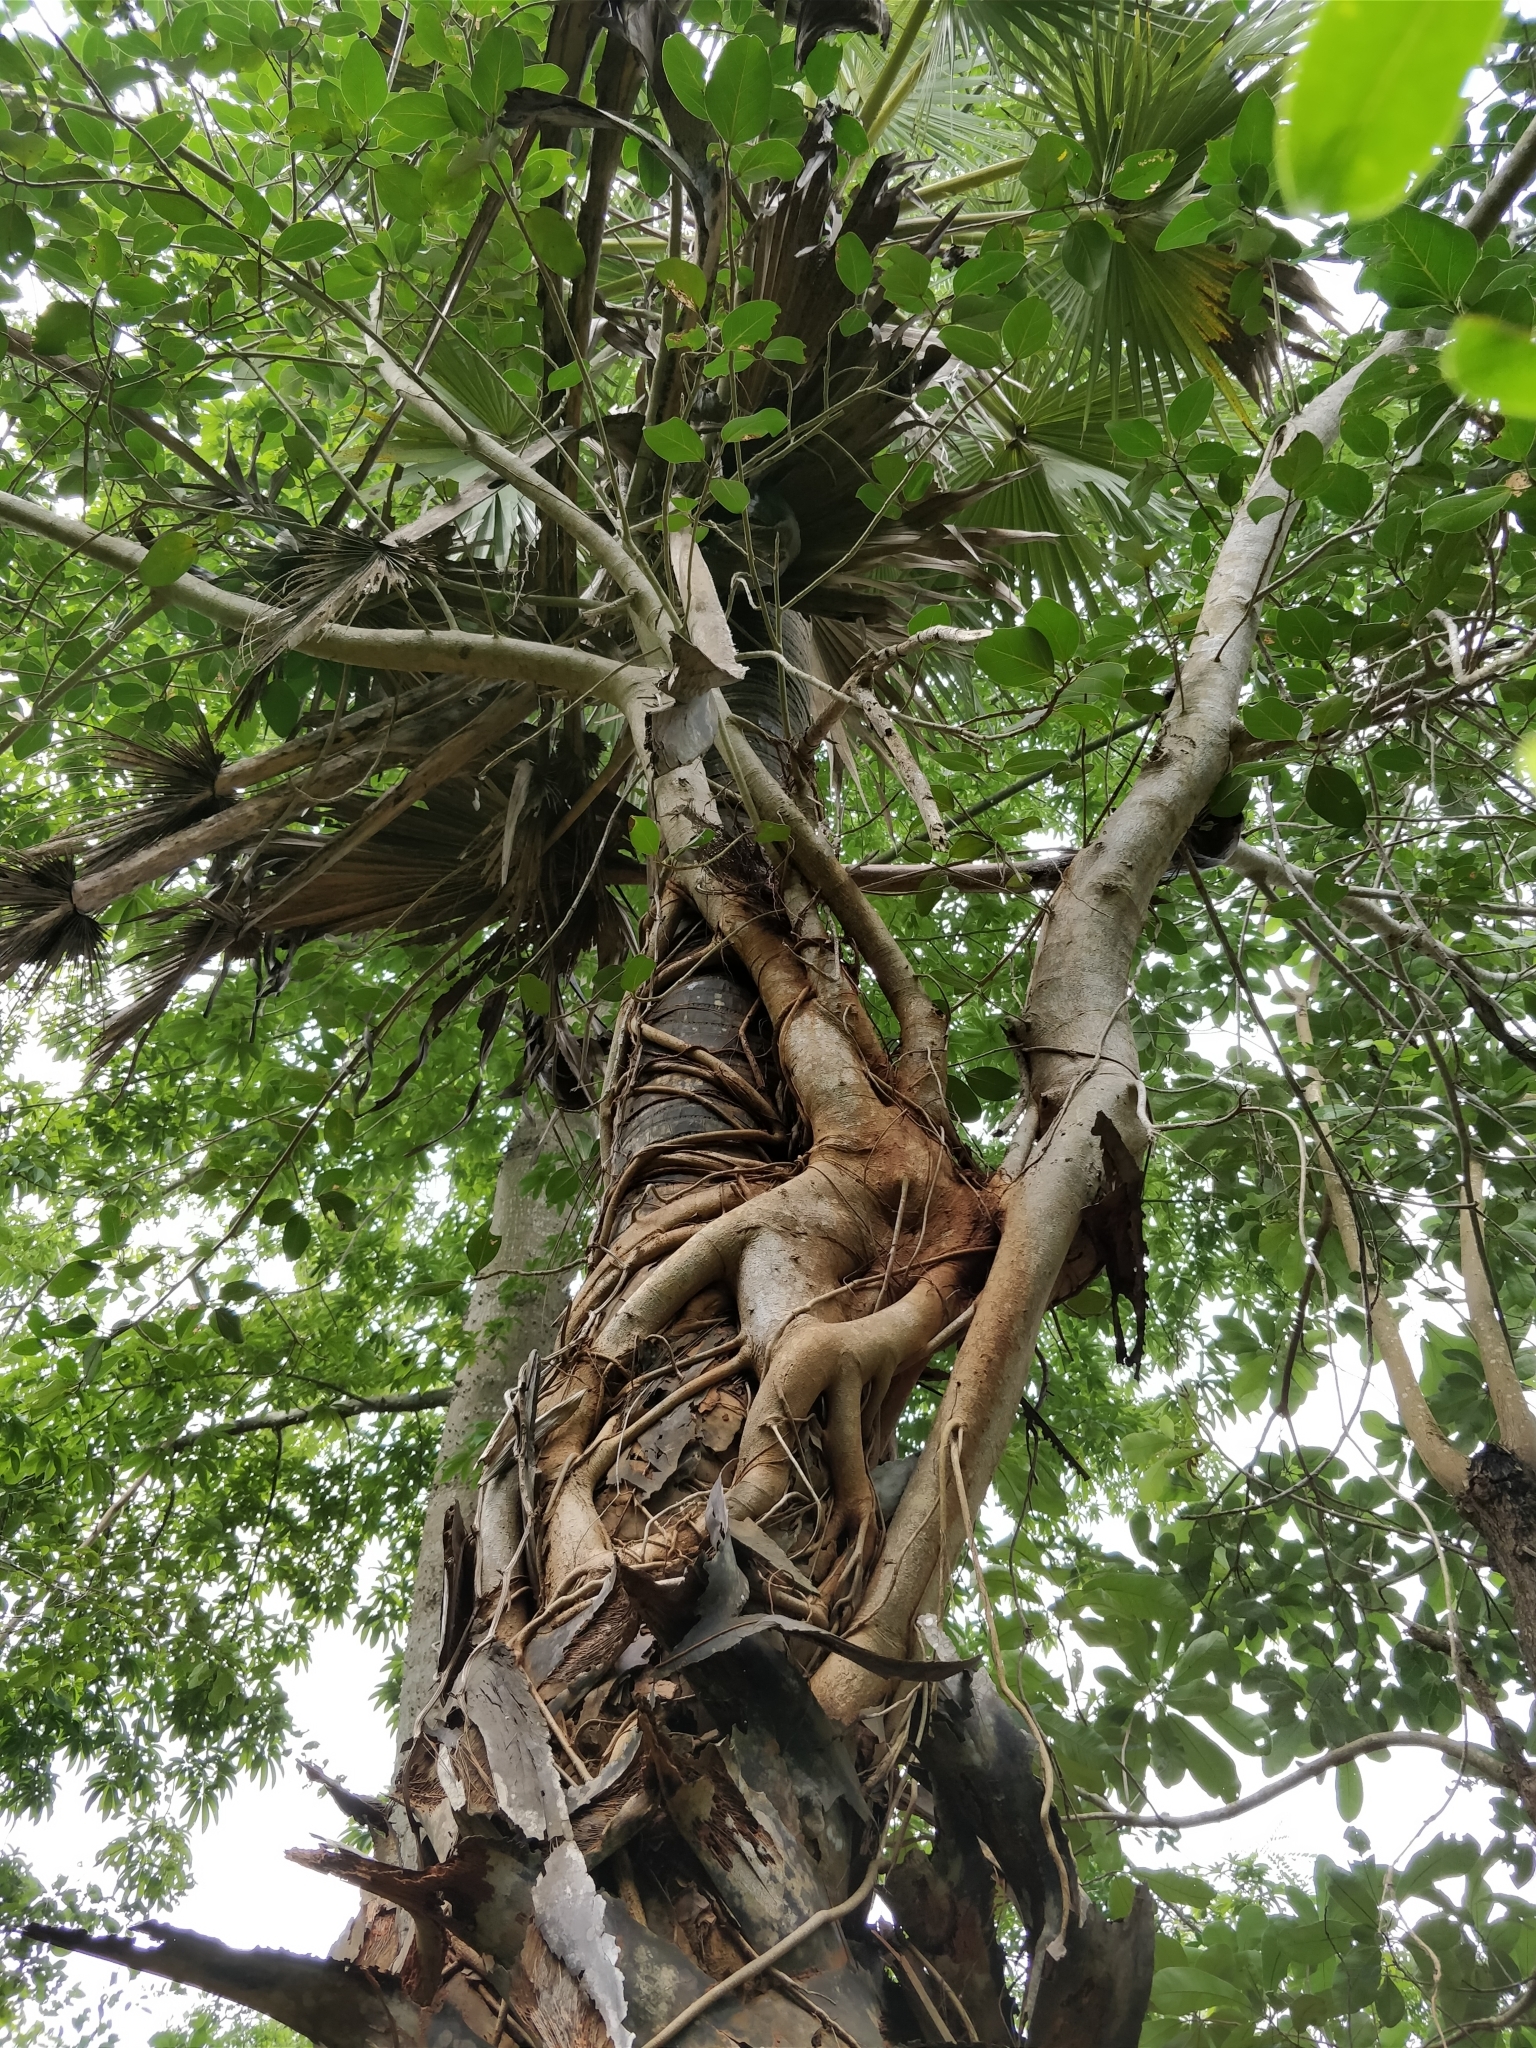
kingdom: Plantae
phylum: Tracheophyta
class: Magnoliopsida
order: Rosales
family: Moraceae
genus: Ficus
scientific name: Ficus benghalensis
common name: Indian banyan
